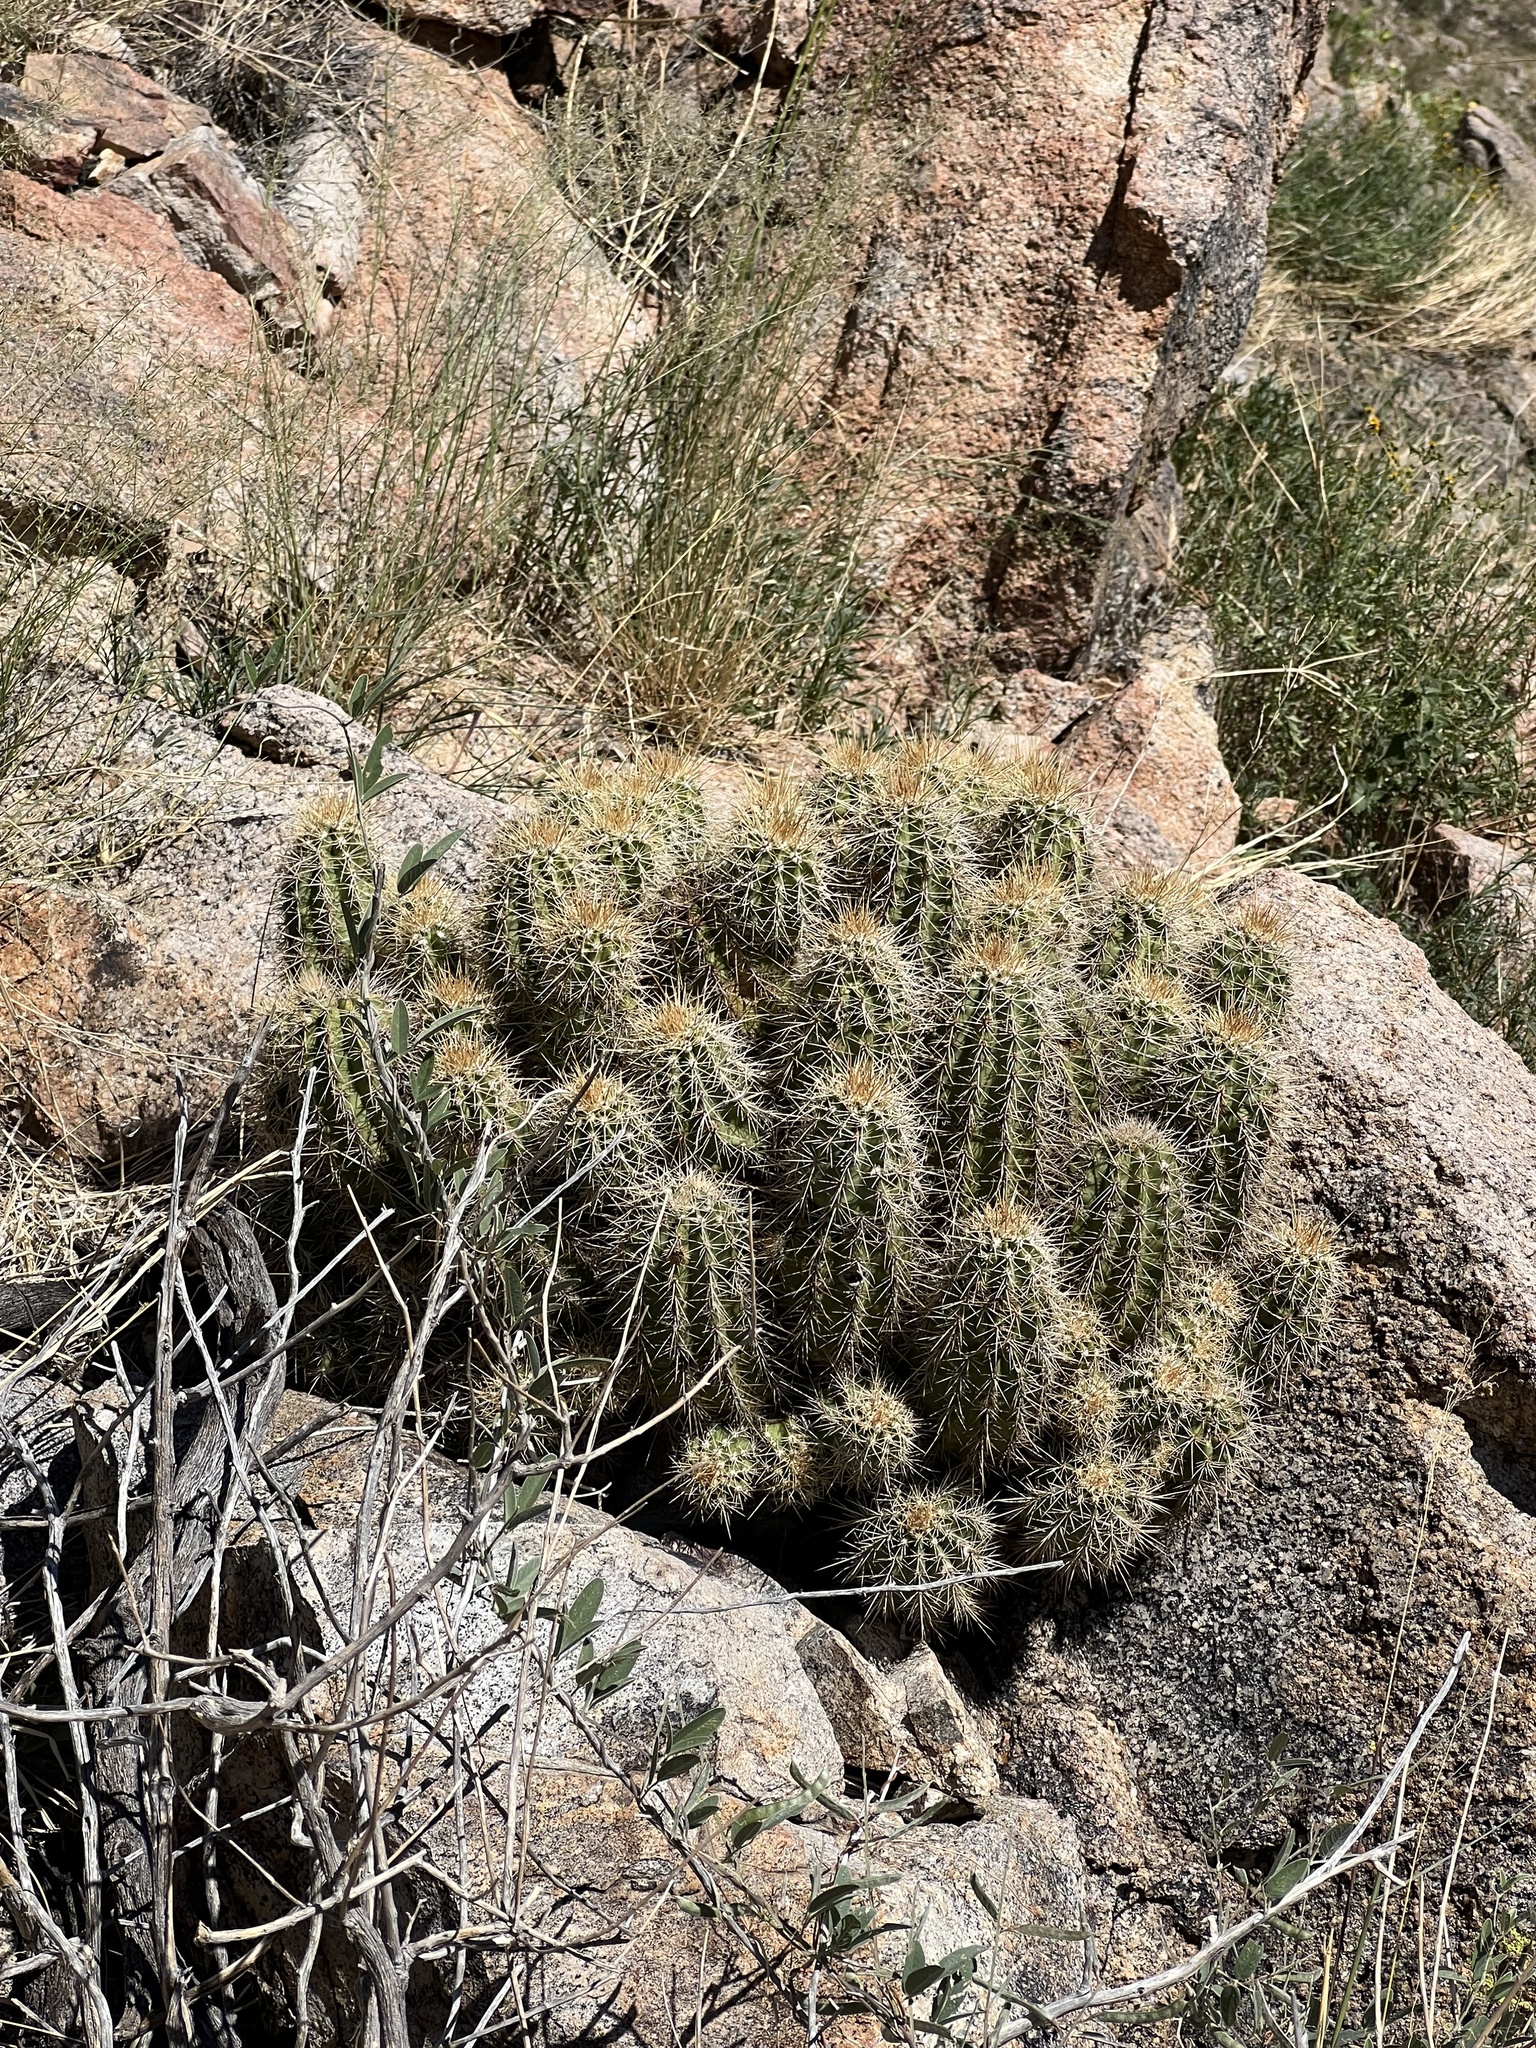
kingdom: Plantae
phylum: Tracheophyta
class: Magnoliopsida
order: Caryophyllales
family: Cactaceae
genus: Echinocereus
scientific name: Echinocereus coccineus
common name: Scarlet hedgehog cactus
